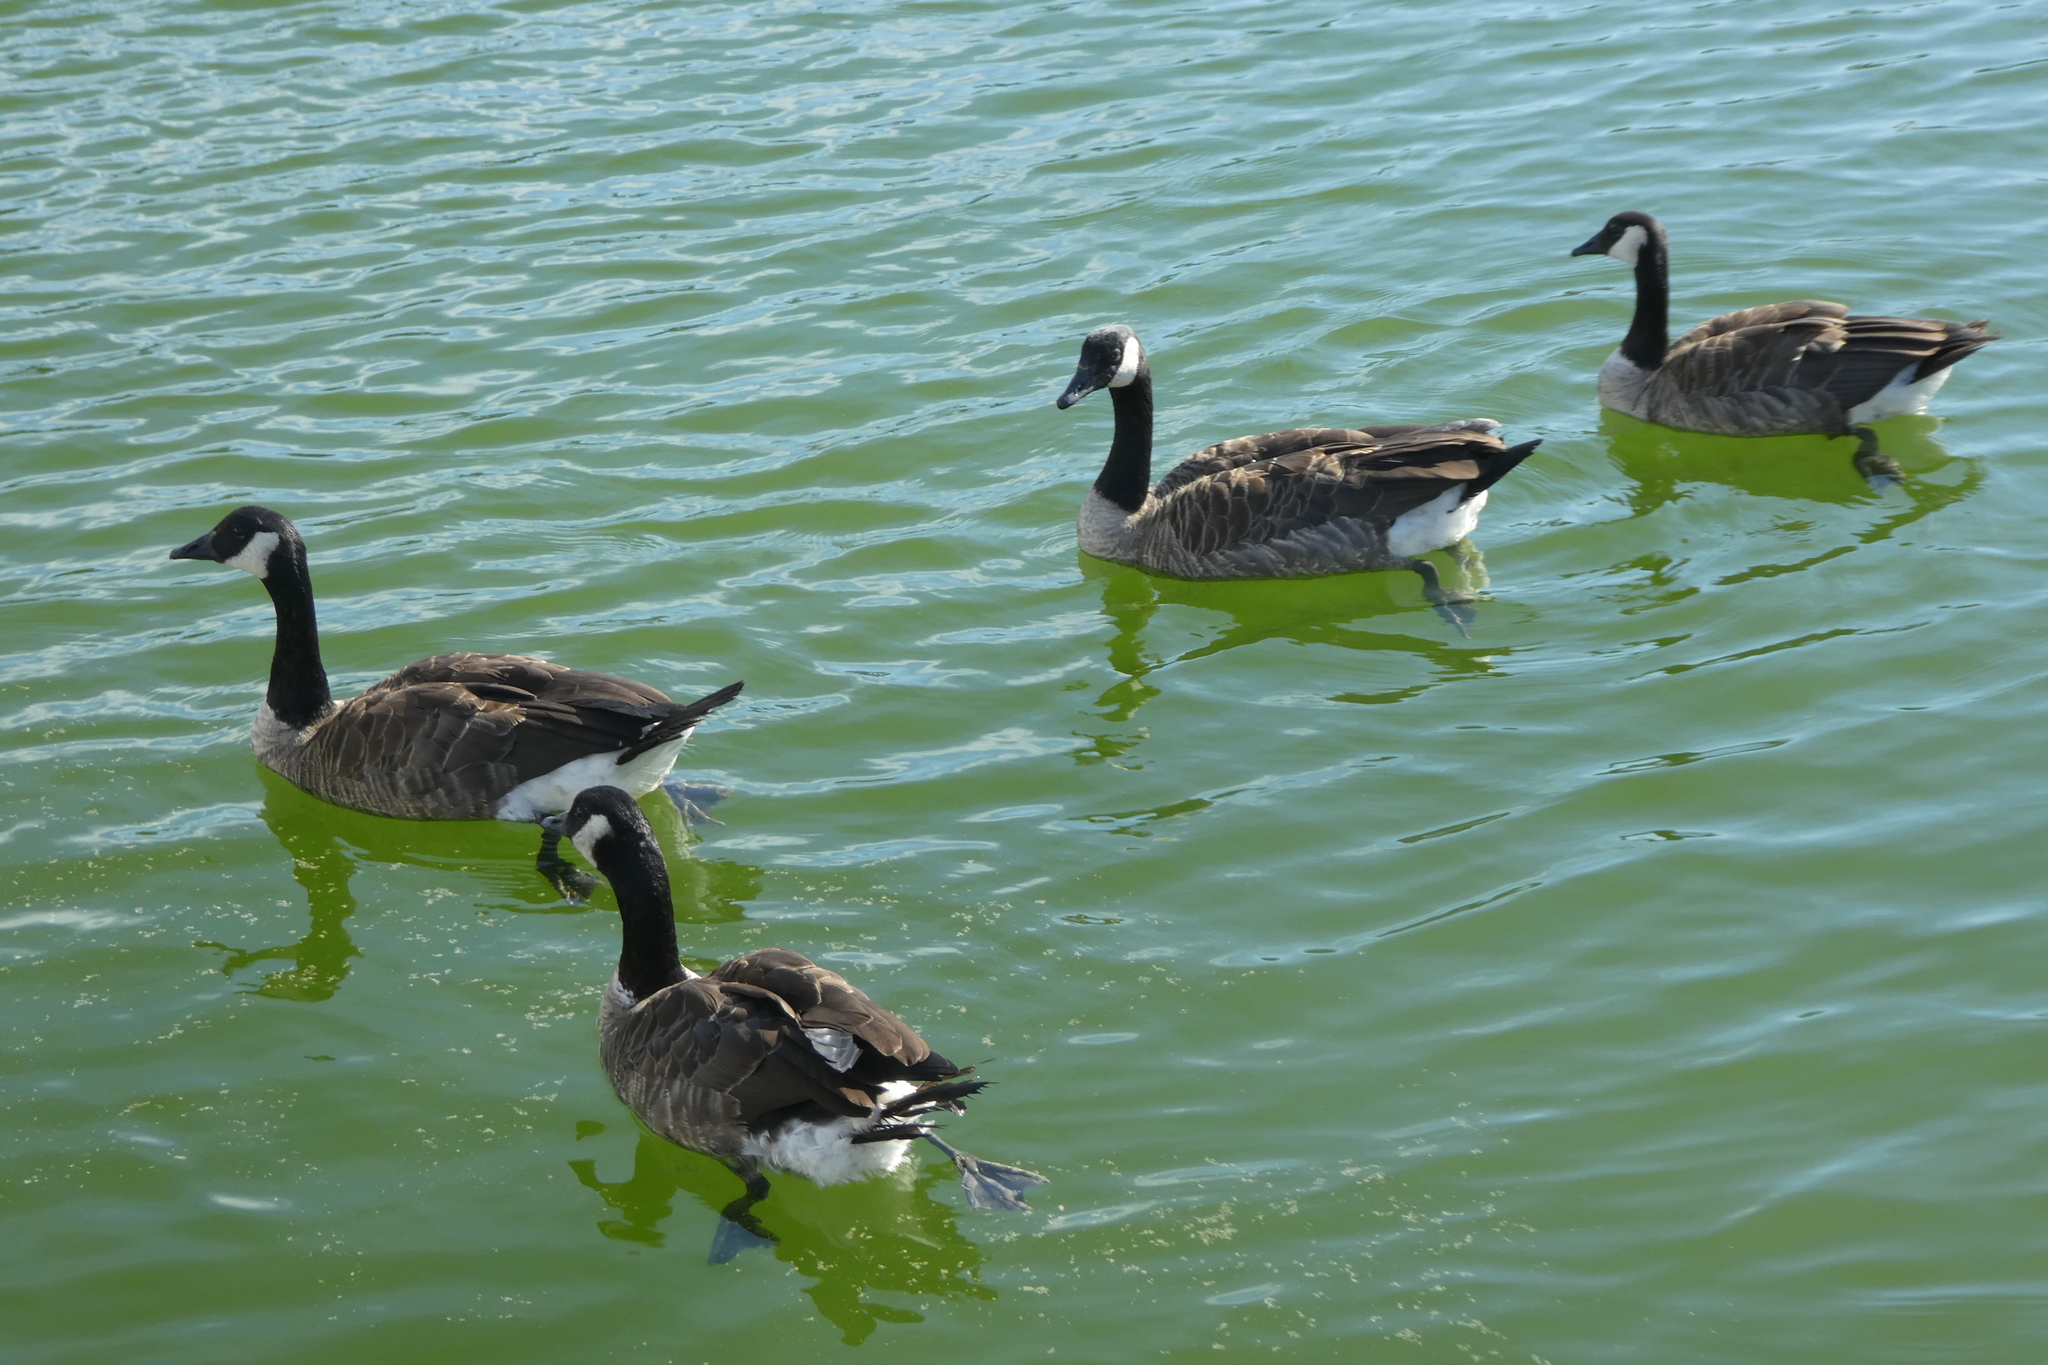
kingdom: Animalia
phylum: Chordata
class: Aves
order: Anseriformes
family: Anatidae
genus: Branta
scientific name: Branta canadensis
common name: Canada goose
